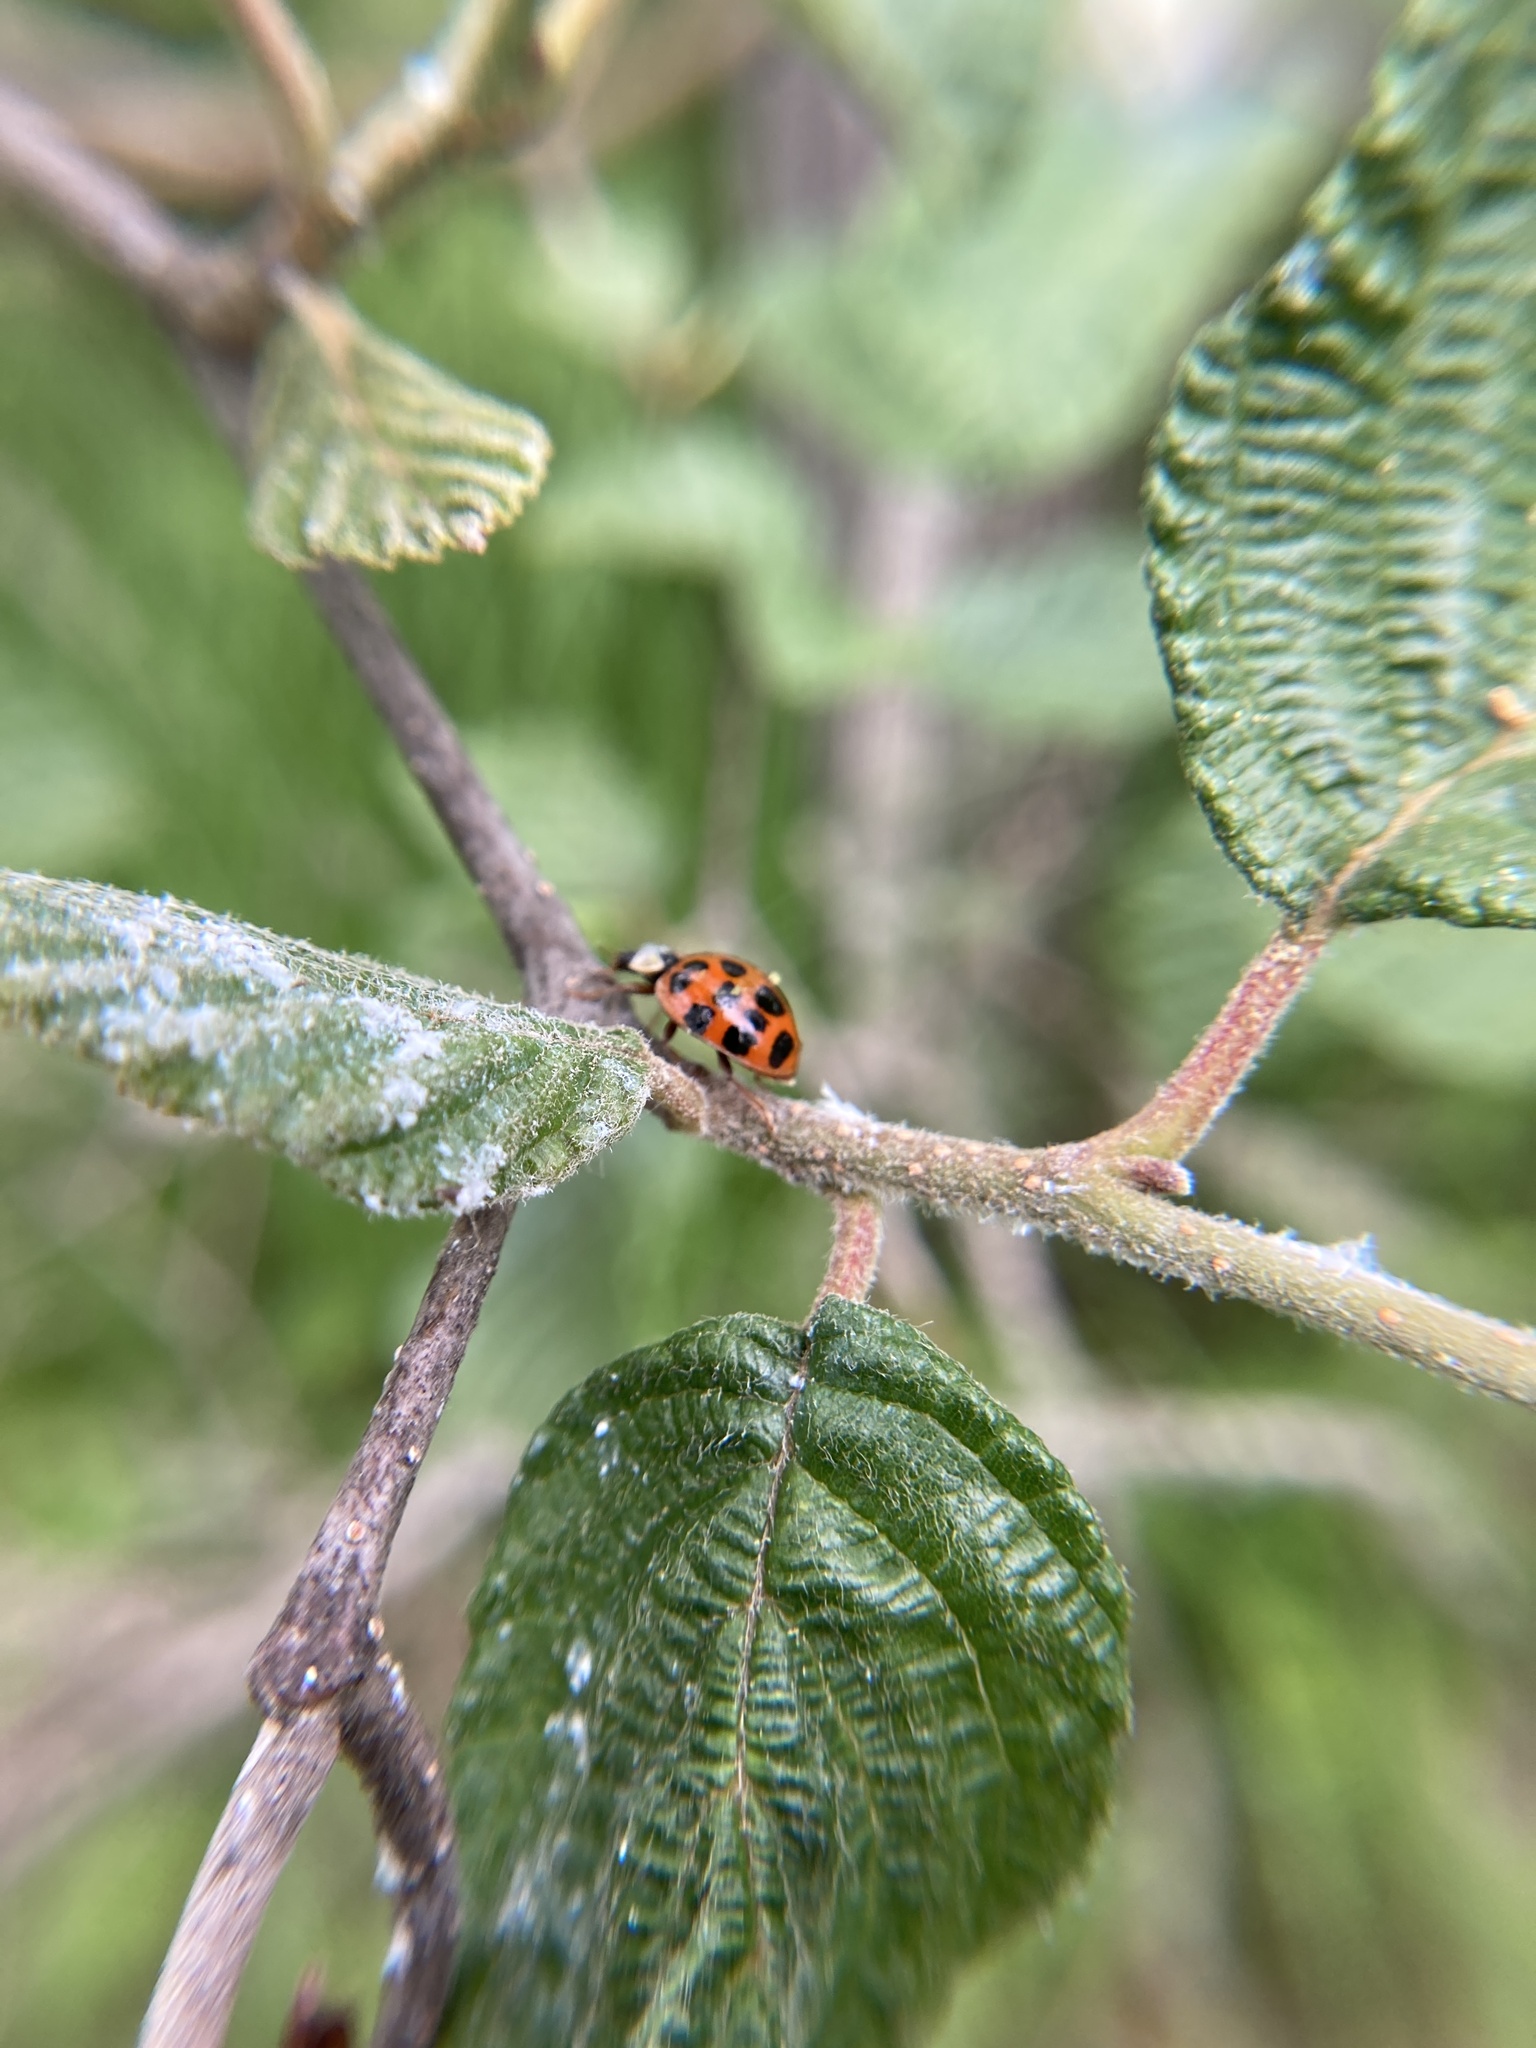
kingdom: Animalia
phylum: Arthropoda
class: Insecta
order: Coleoptera
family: Coccinellidae
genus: Harmonia
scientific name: Harmonia axyridis
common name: Harlequin ladybird
